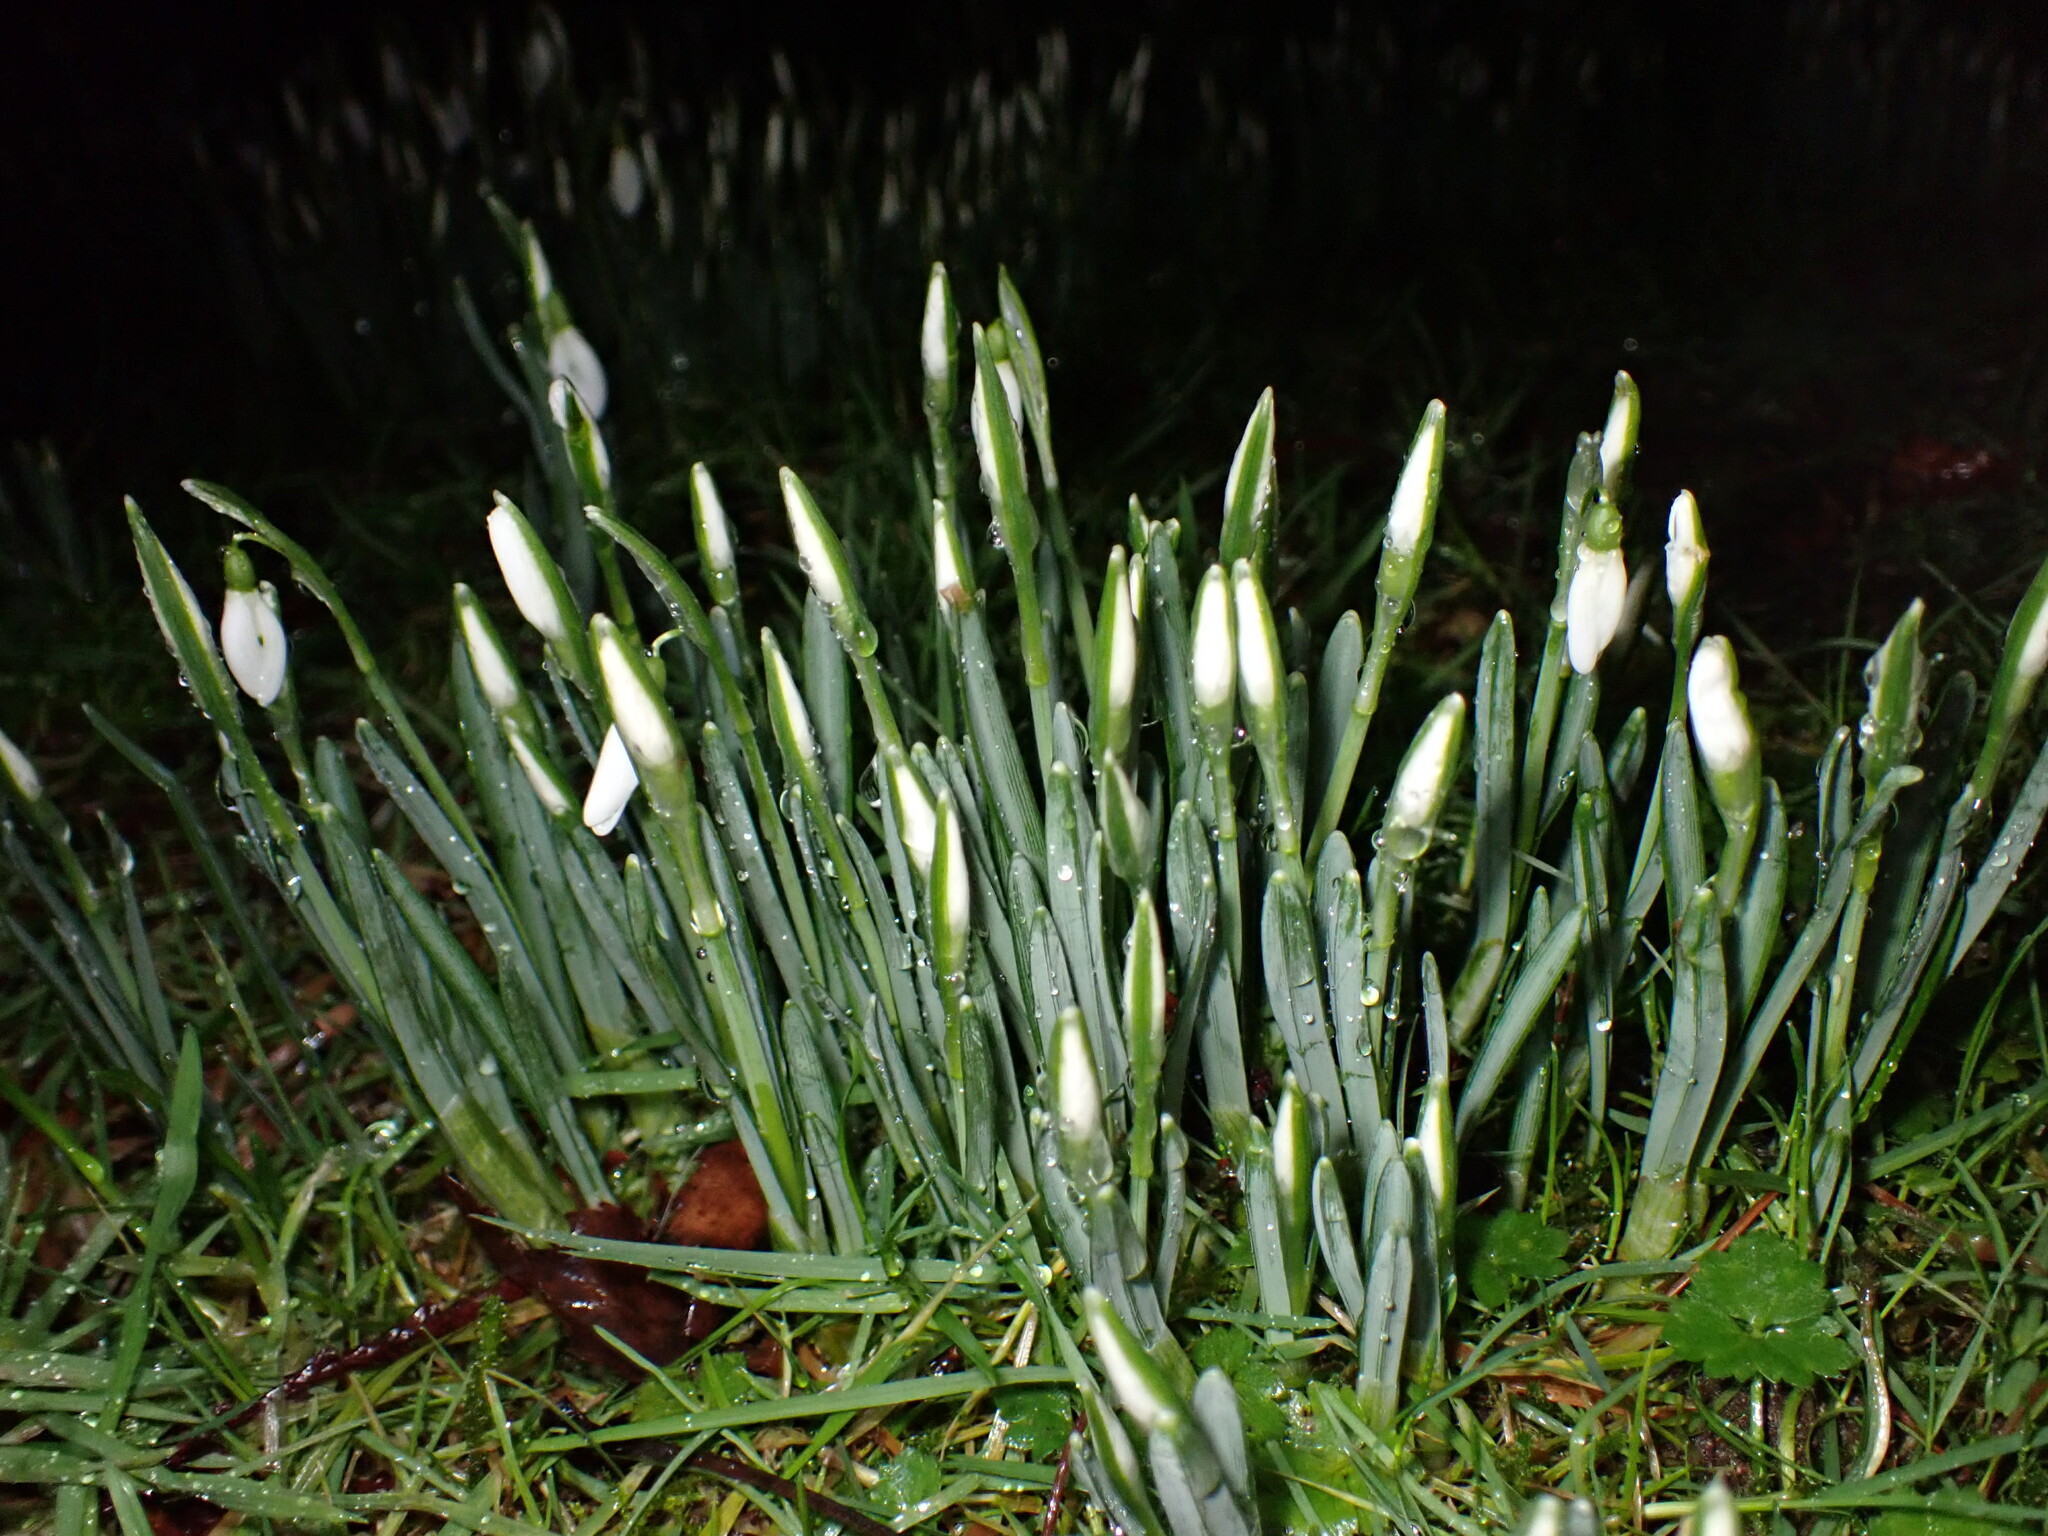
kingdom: Plantae
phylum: Tracheophyta
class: Liliopsida
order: Asparagales
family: Amaryllidaceae
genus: Galanthus
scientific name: Galanthus nivalis
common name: Snowdrop
